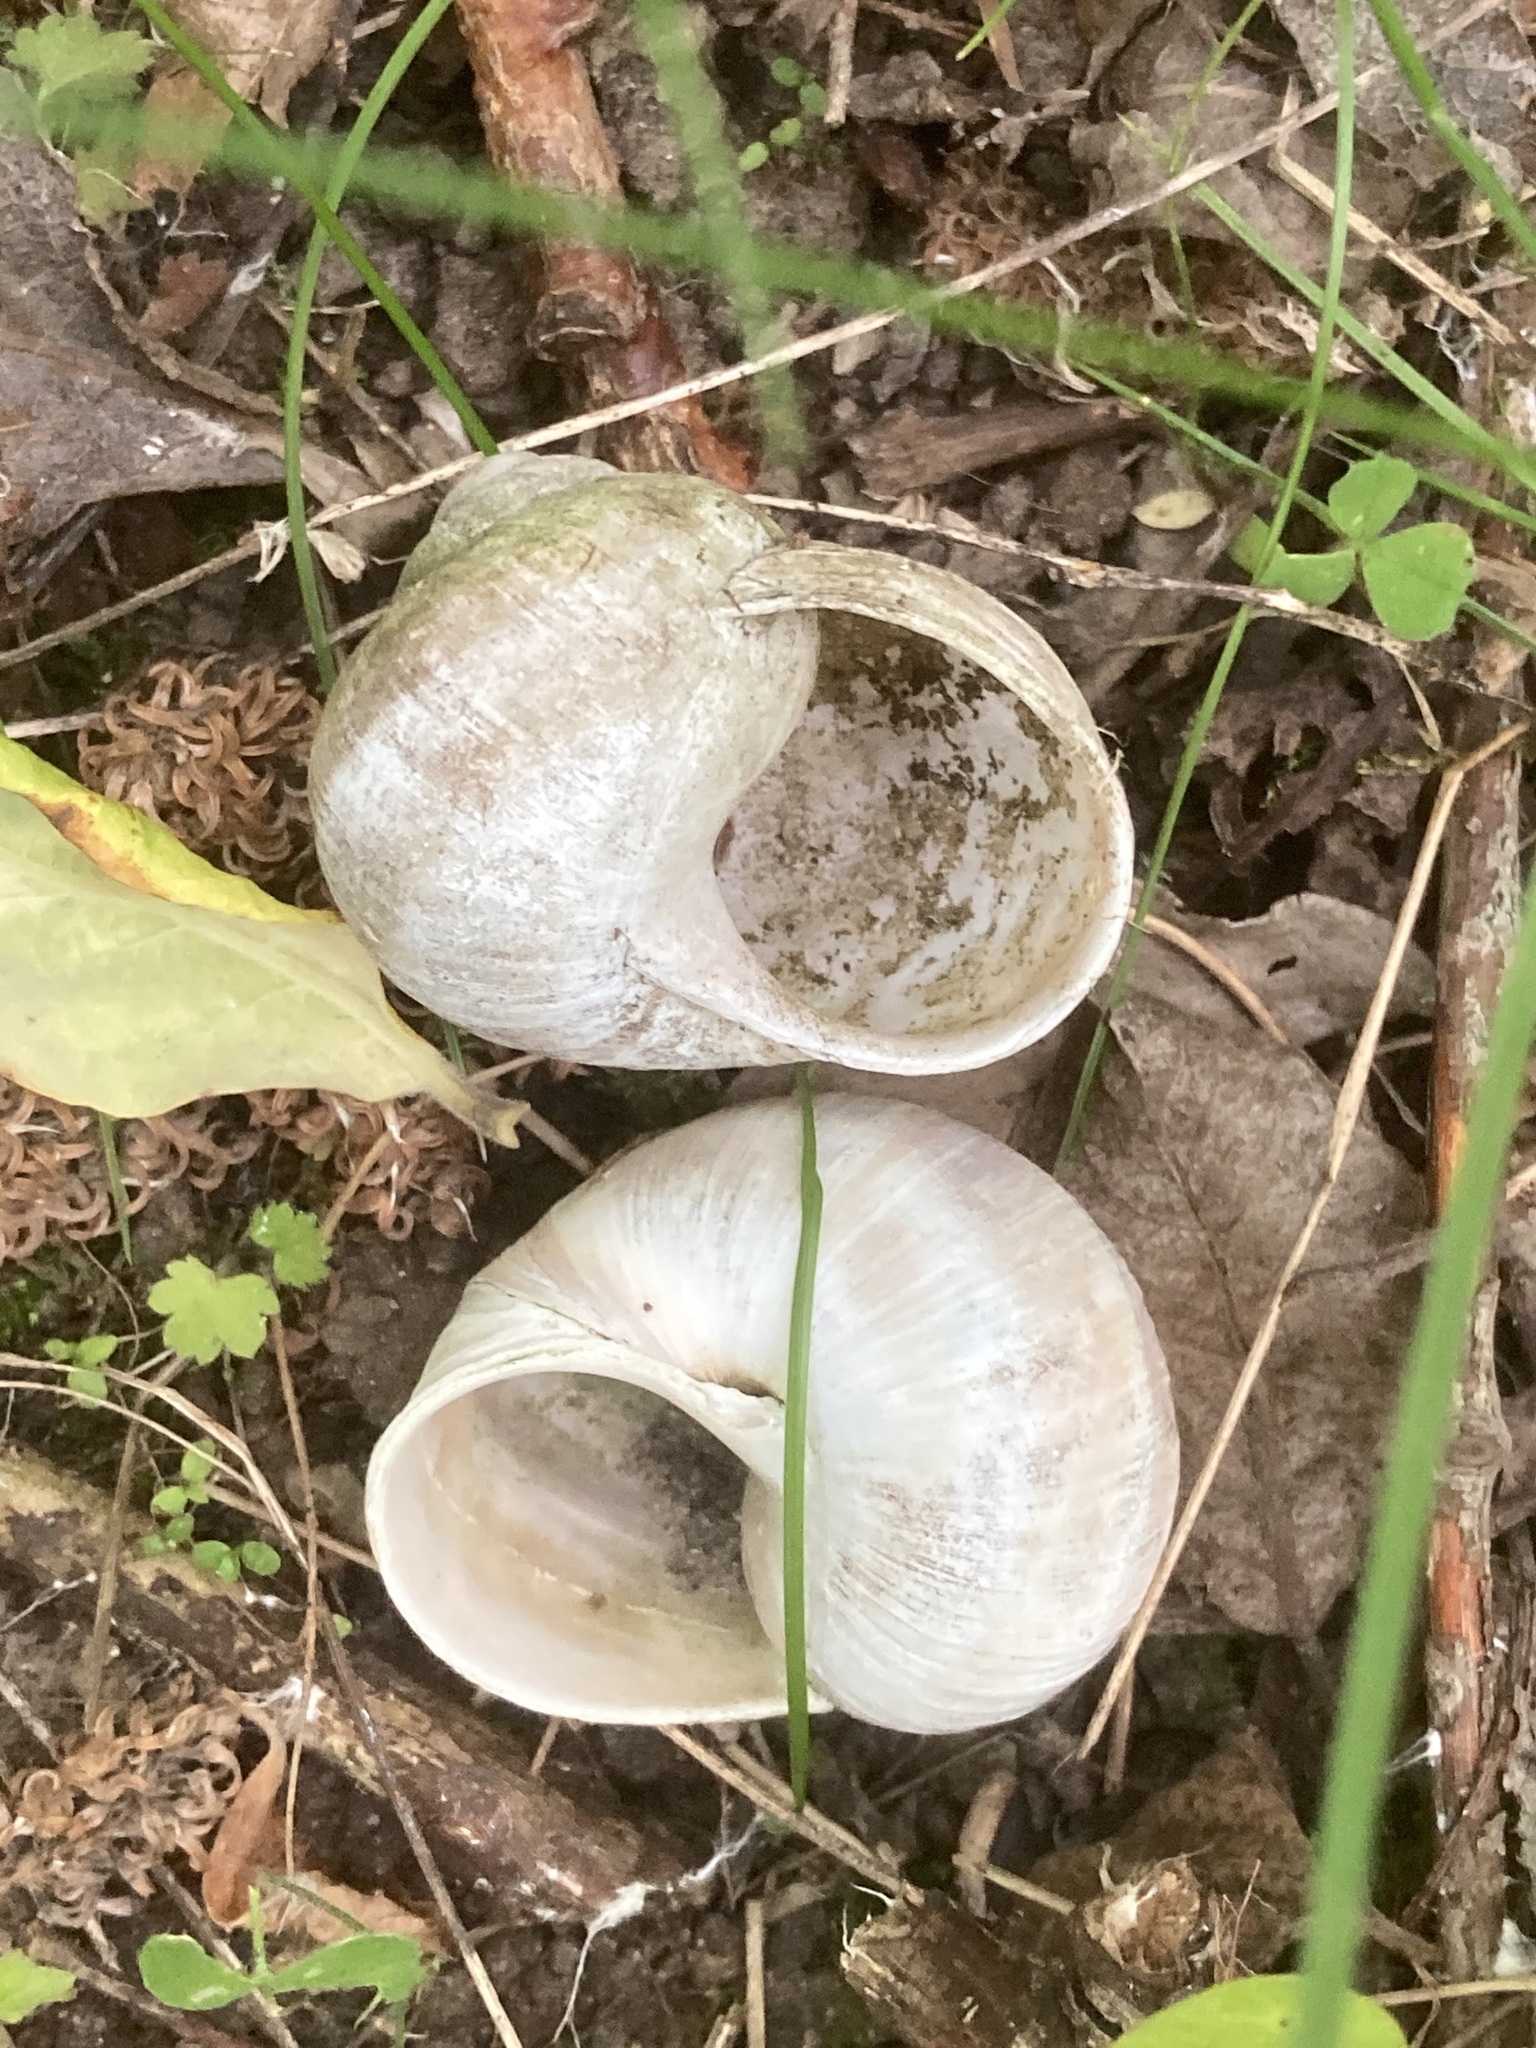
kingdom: Animalia
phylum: Mollusca
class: Gastropoda
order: Stylommatophora
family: Helicidae
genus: Helix
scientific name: Helix pomatia
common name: Roman snail
